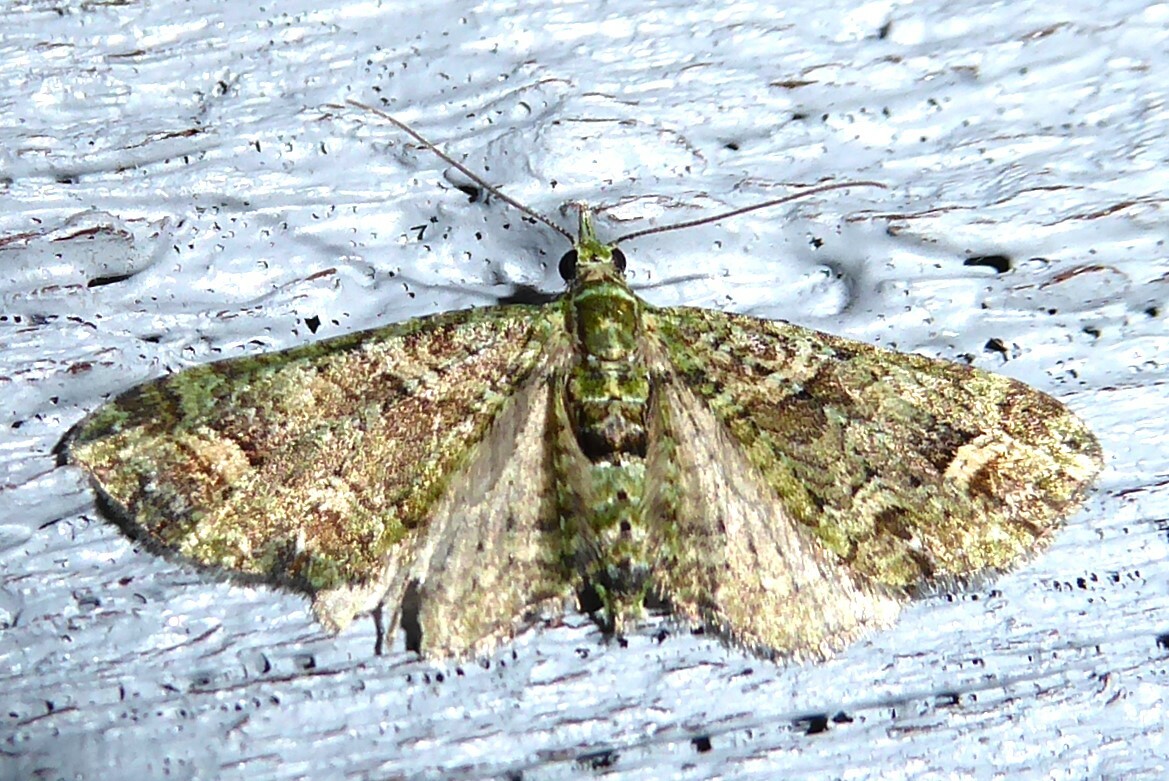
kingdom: Animalia
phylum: Arthropoda
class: Insecta
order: Lepidoptera
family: Geometridae
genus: Idaea
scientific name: Idaea mutanda
